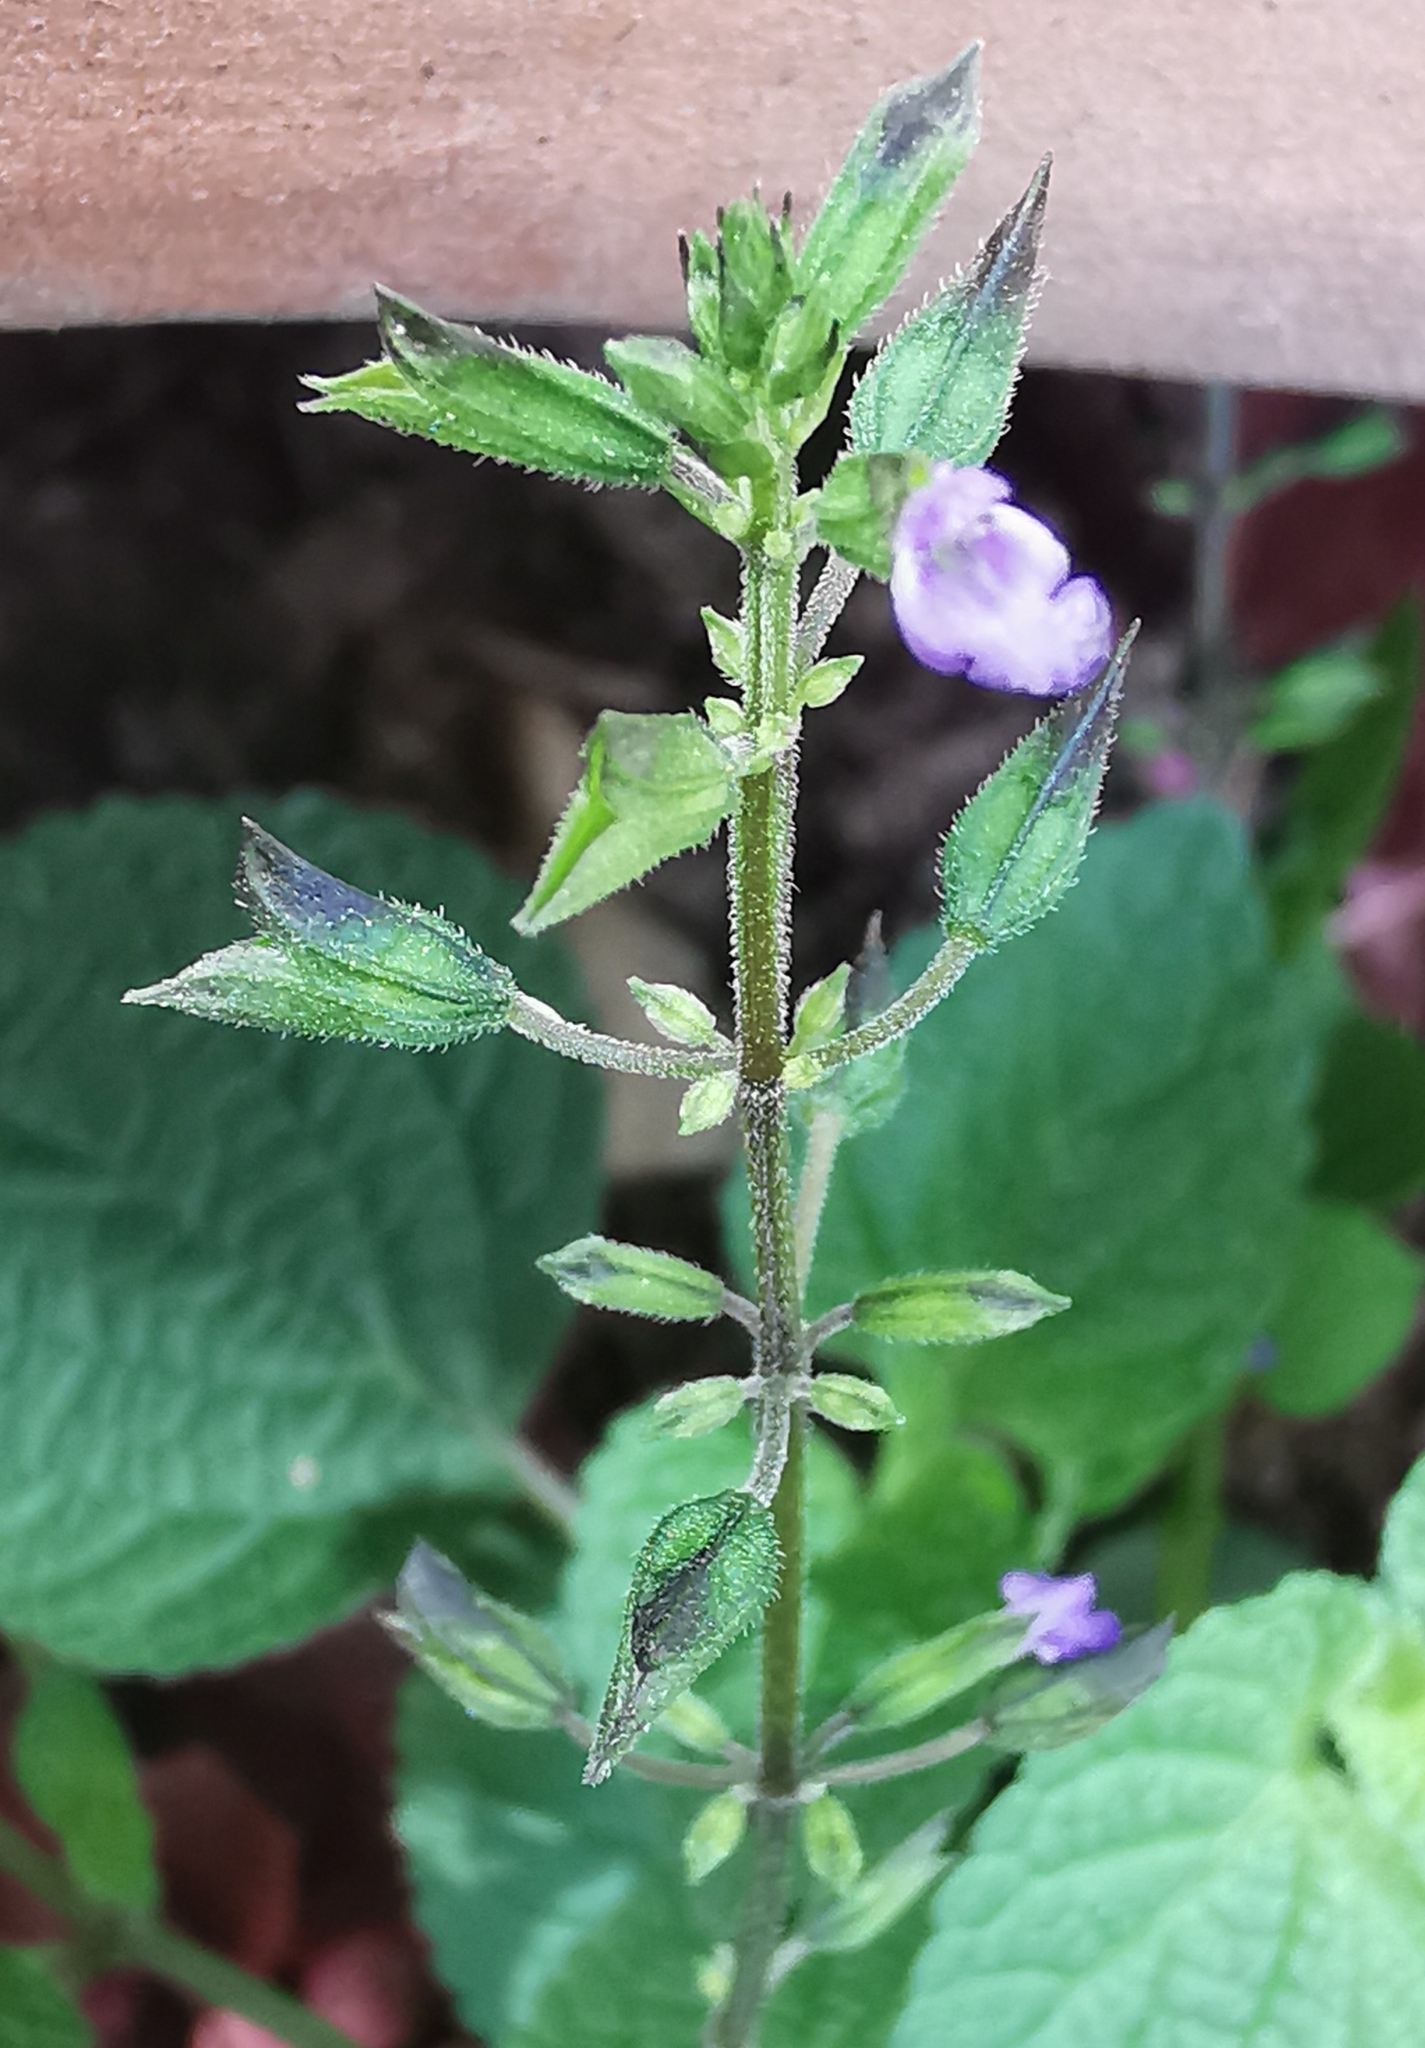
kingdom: Plantae
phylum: Tracheophyta
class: Magnoliopsida
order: Lamiales
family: Lamiaceae
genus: Salvia
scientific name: Salvia tiliifolia
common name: Lindenleaf sage
